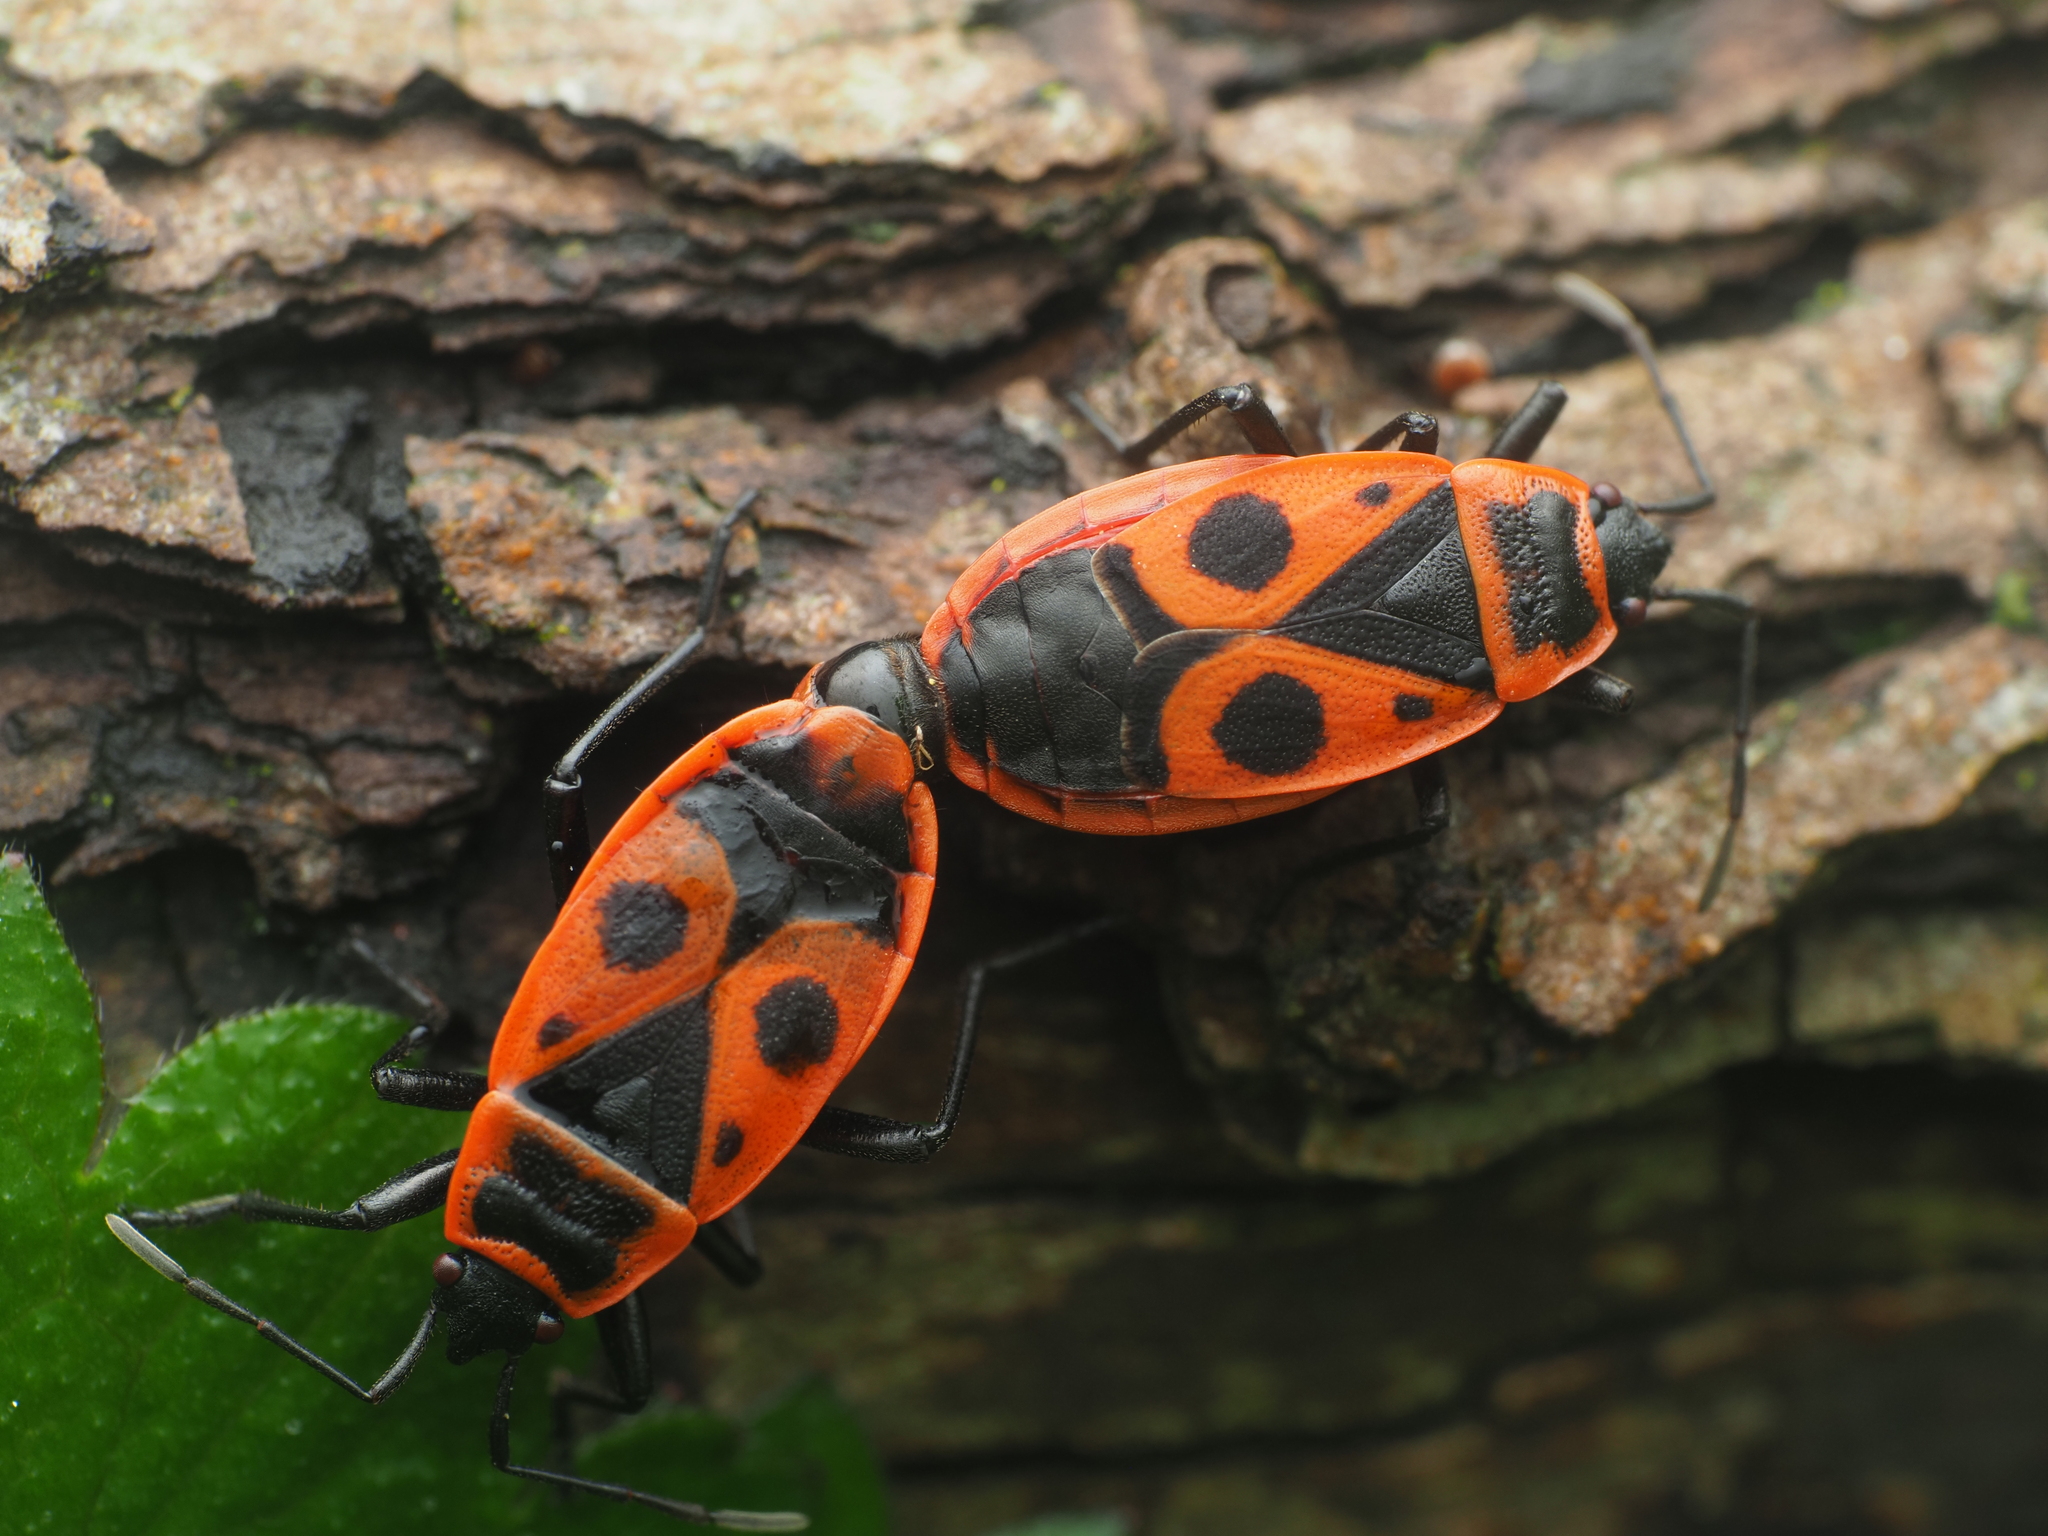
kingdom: Animalia
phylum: Arthropoda
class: Insecta
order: Hemiptera
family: Pyrrhocoridae
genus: Pyrrhocoris
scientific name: Pyrrhocoris apterus
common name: Firebug
